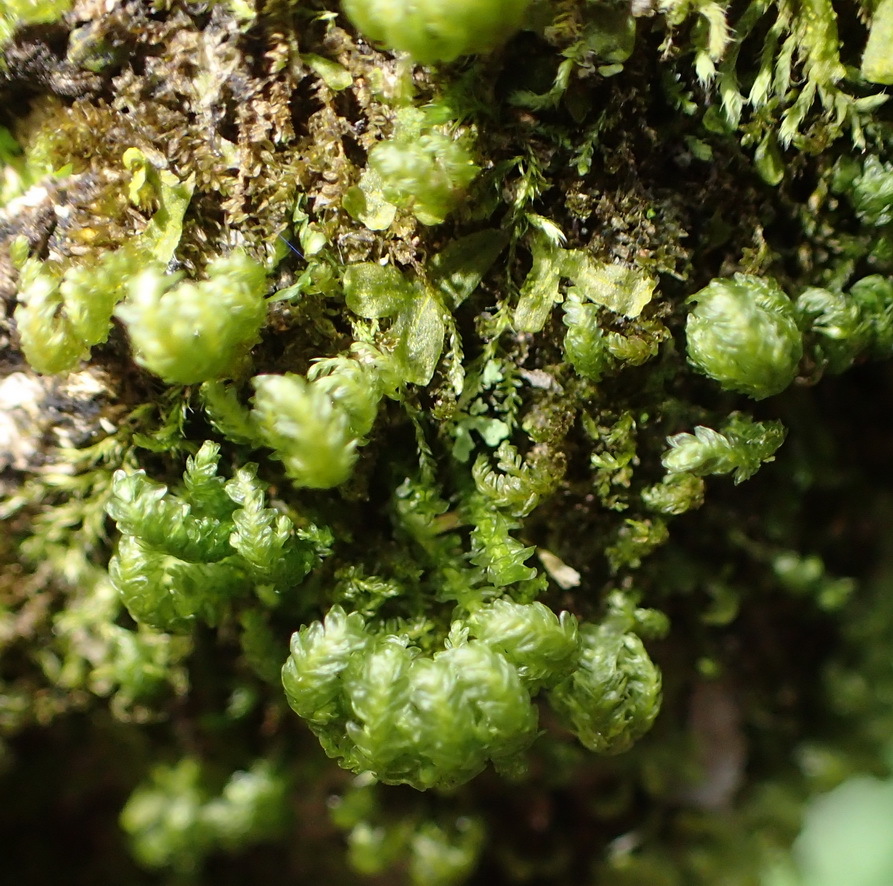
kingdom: Plantae
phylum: Bryophyta
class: Bryopsida
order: Hypnales
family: Neckeraceae
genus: Leptodon
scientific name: Leptodon smithii
